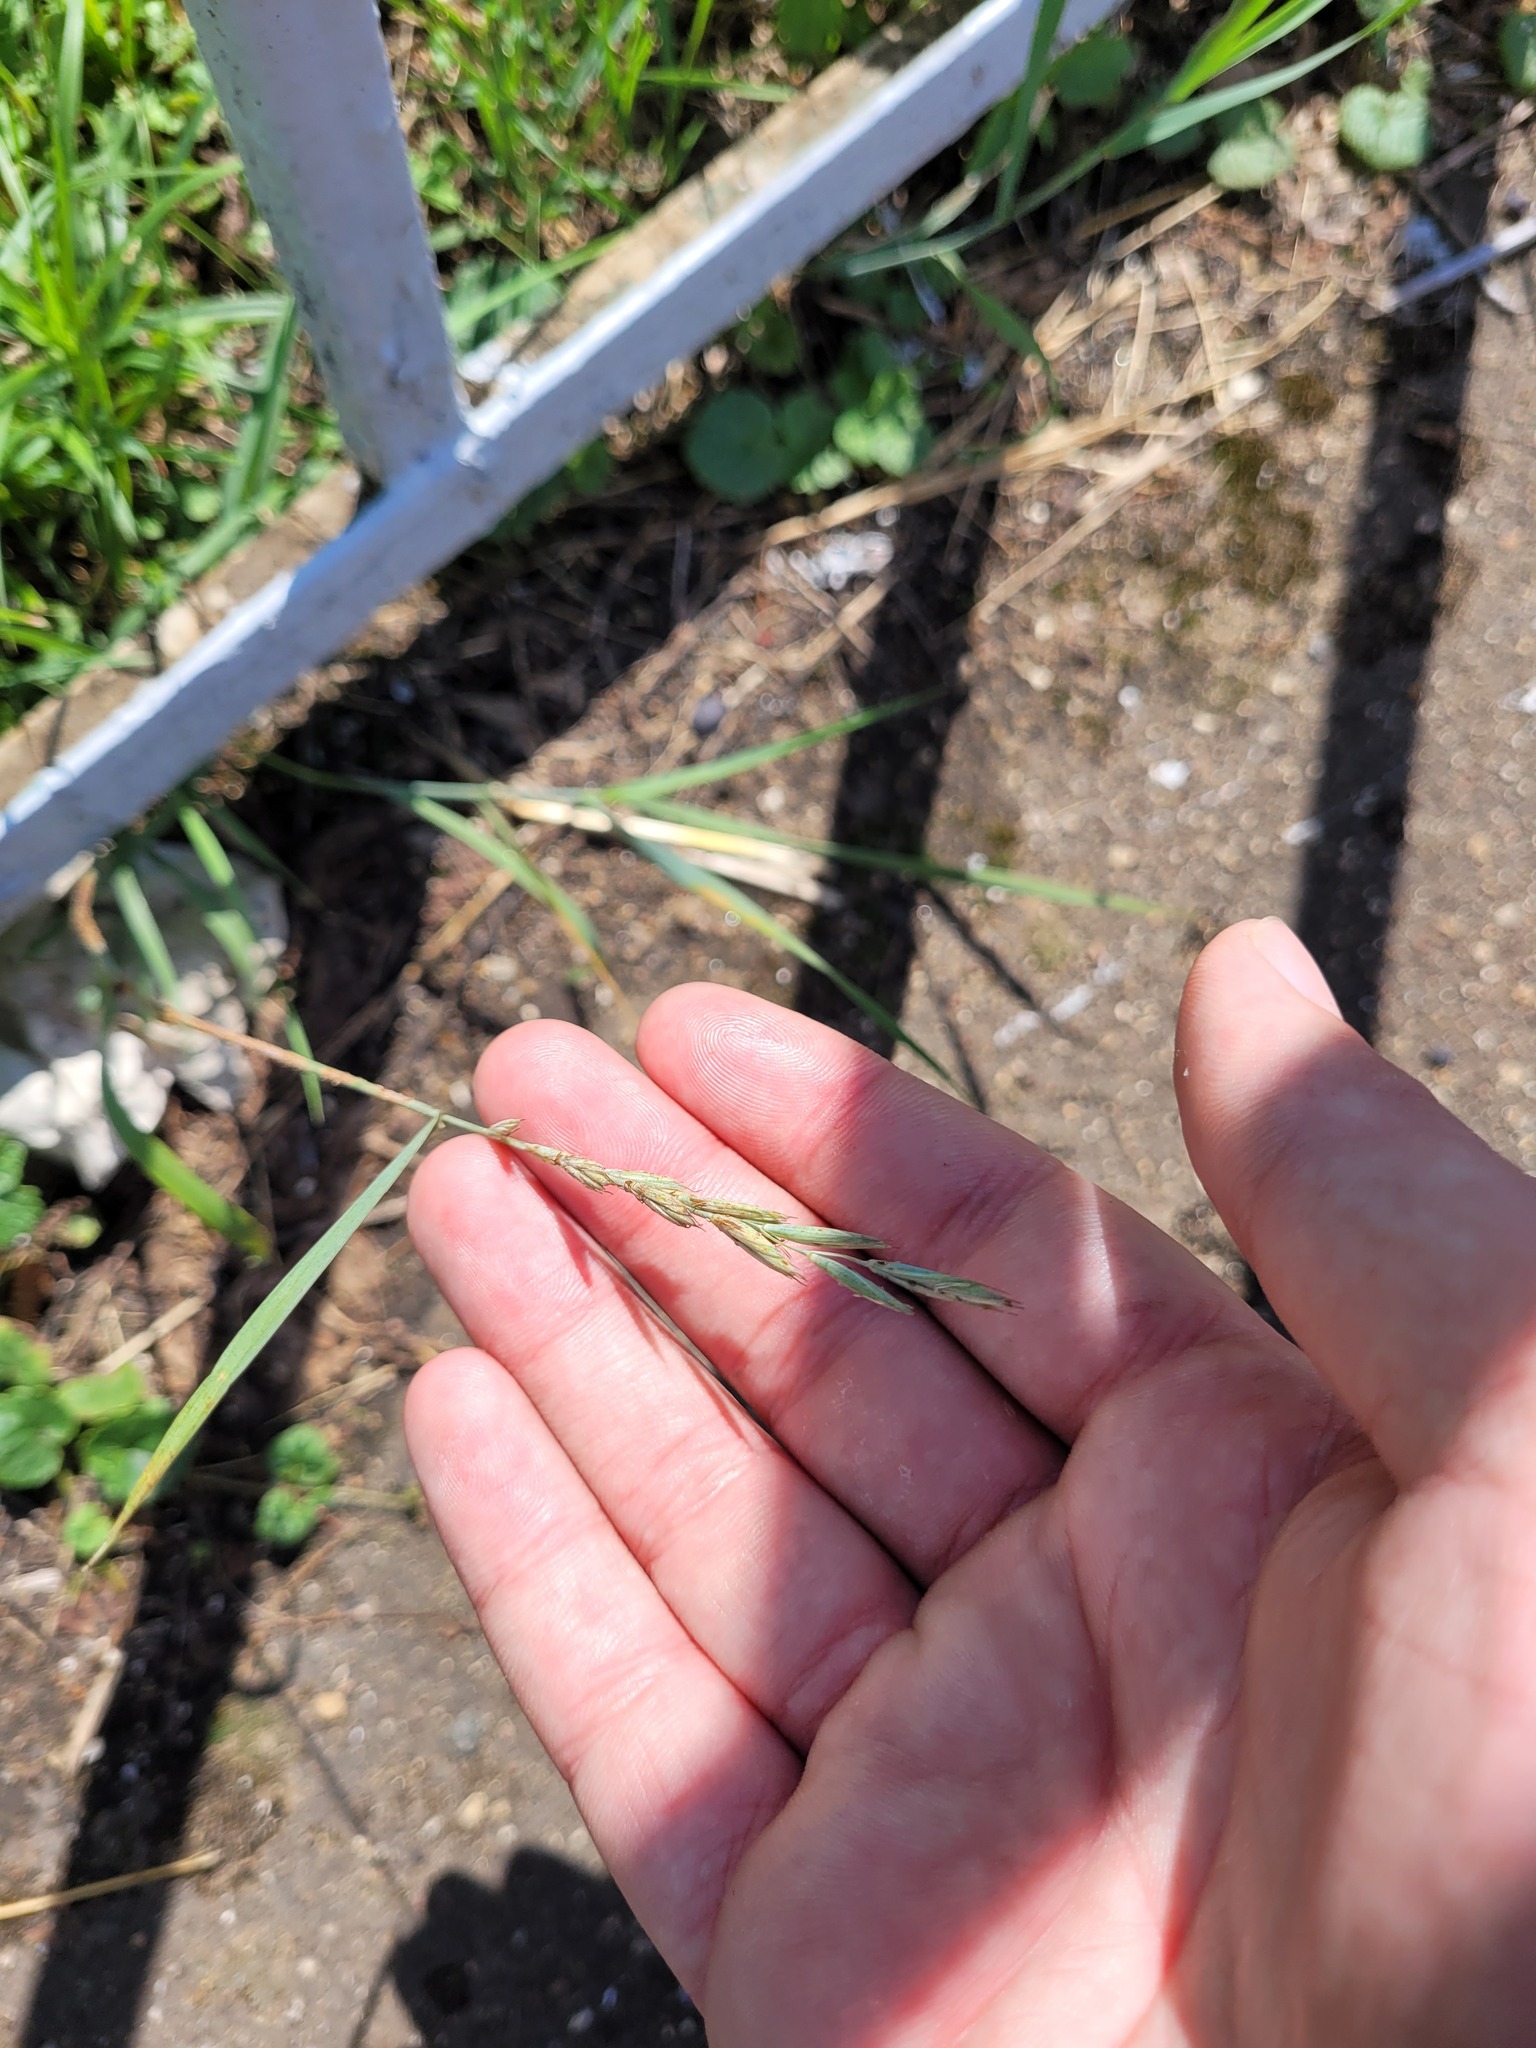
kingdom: Plantae
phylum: Tracheophyta
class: Liliopsida
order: Poales
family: Poaceae
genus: Elymus
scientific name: Elymus repens
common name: Quackgrass
